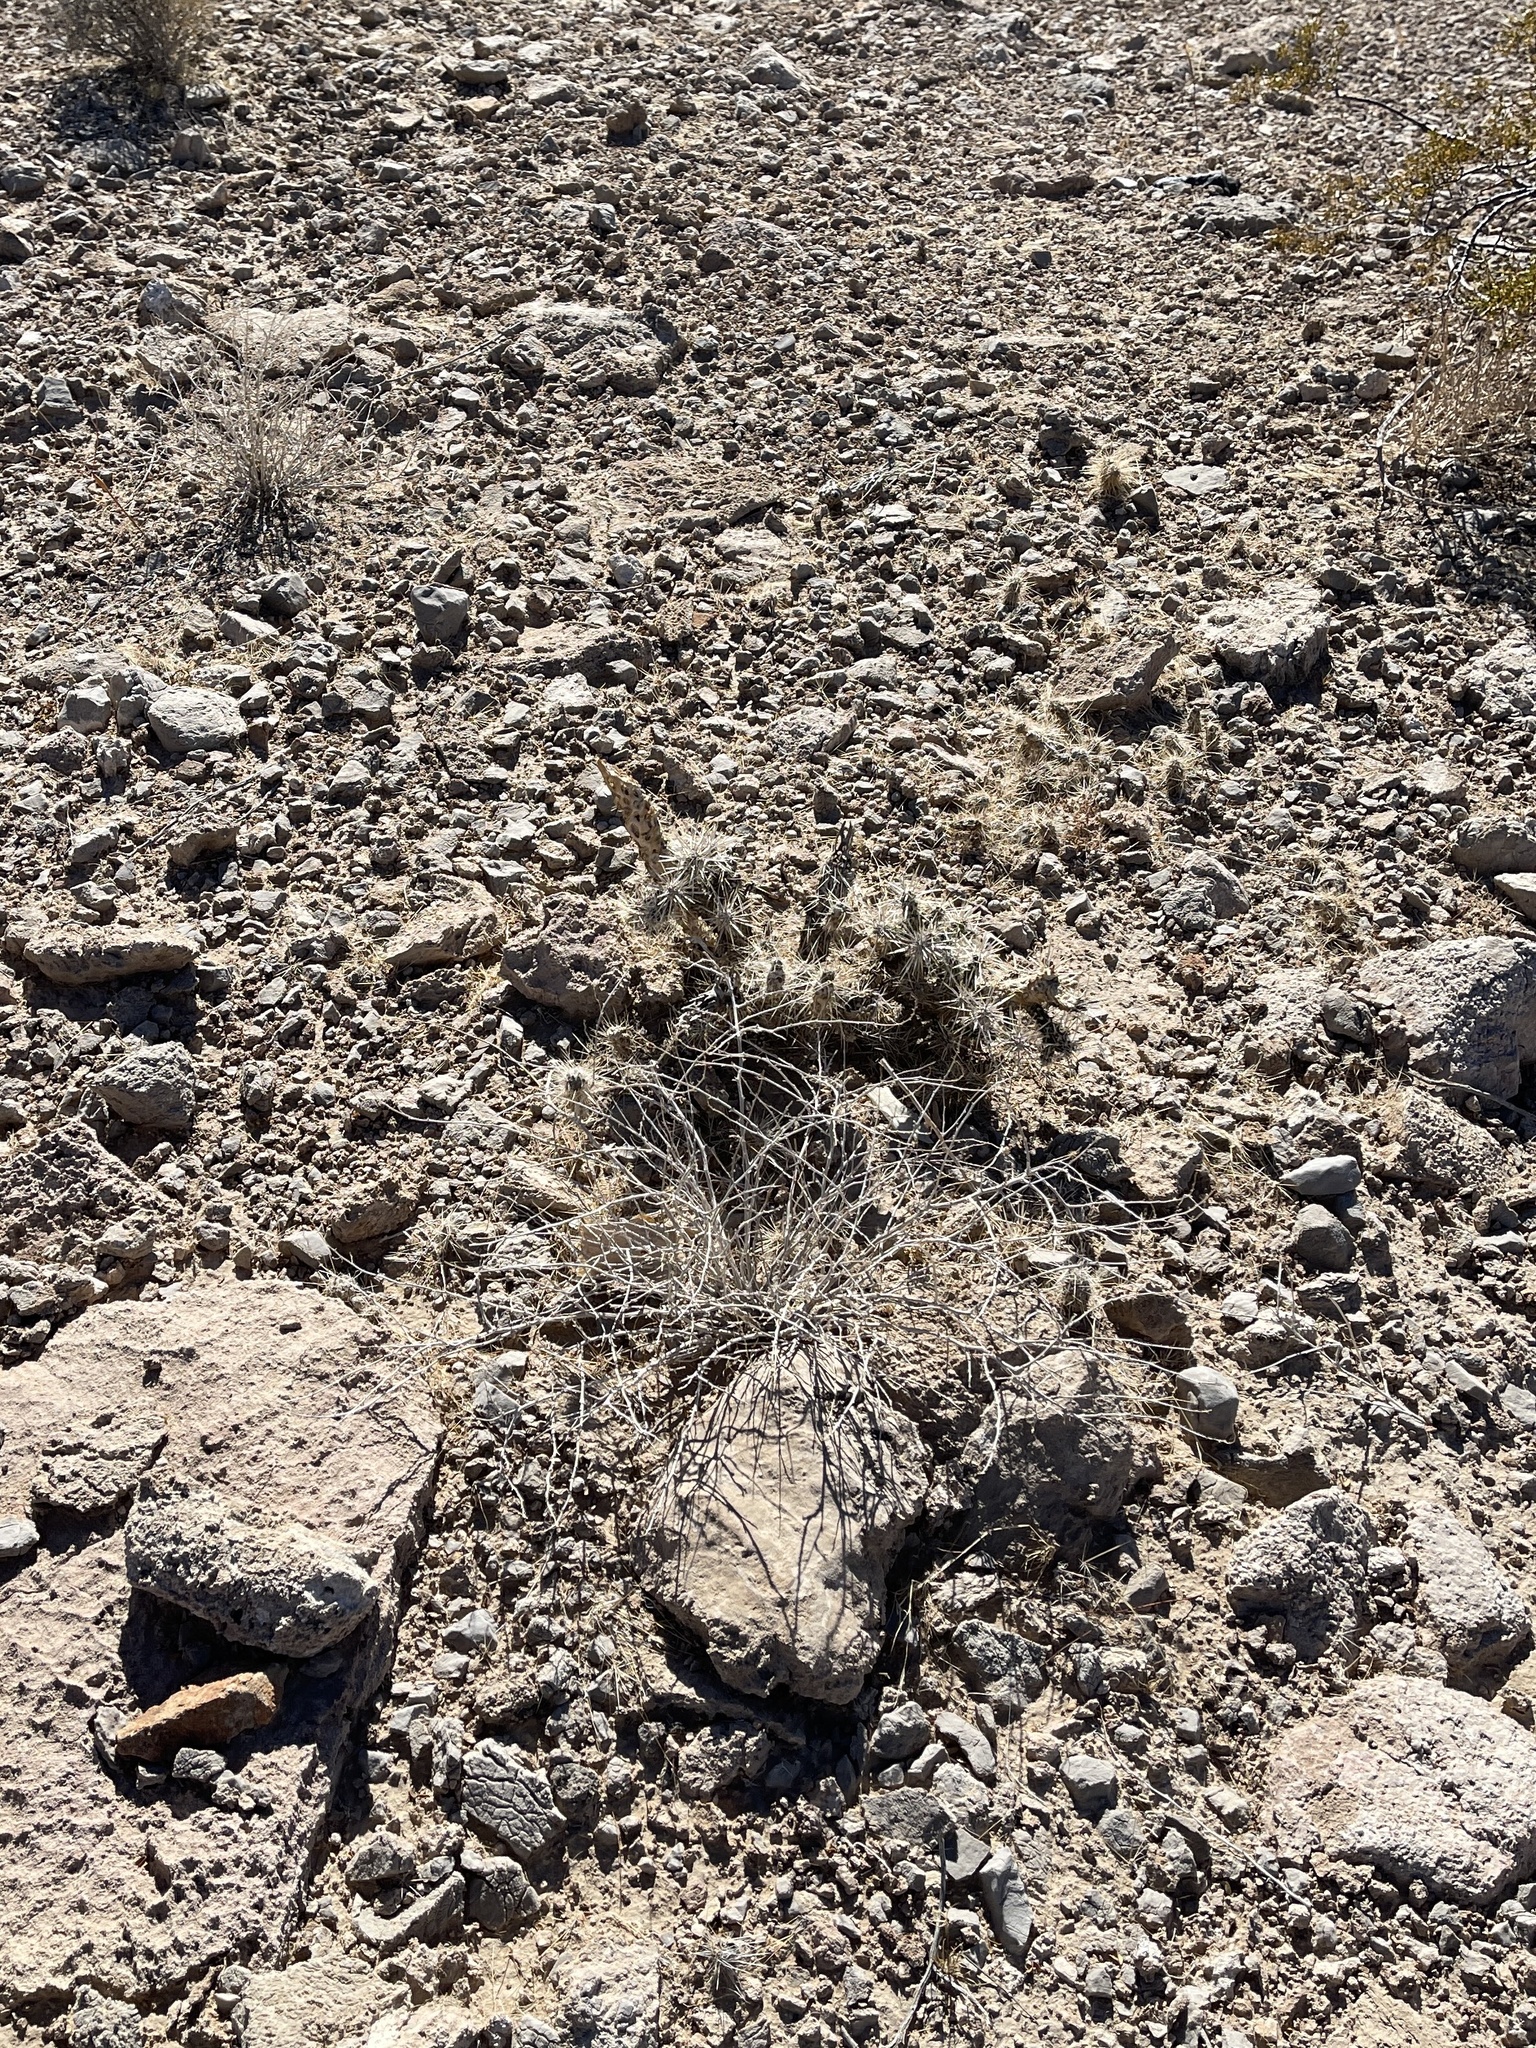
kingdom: Plantae
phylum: Tracheophyta
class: Magnoliopsida
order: Caryophyllales
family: Cactaceae
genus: Cylindropuntia
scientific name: Cylindropuntia echinocarpa
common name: Ground cholla
